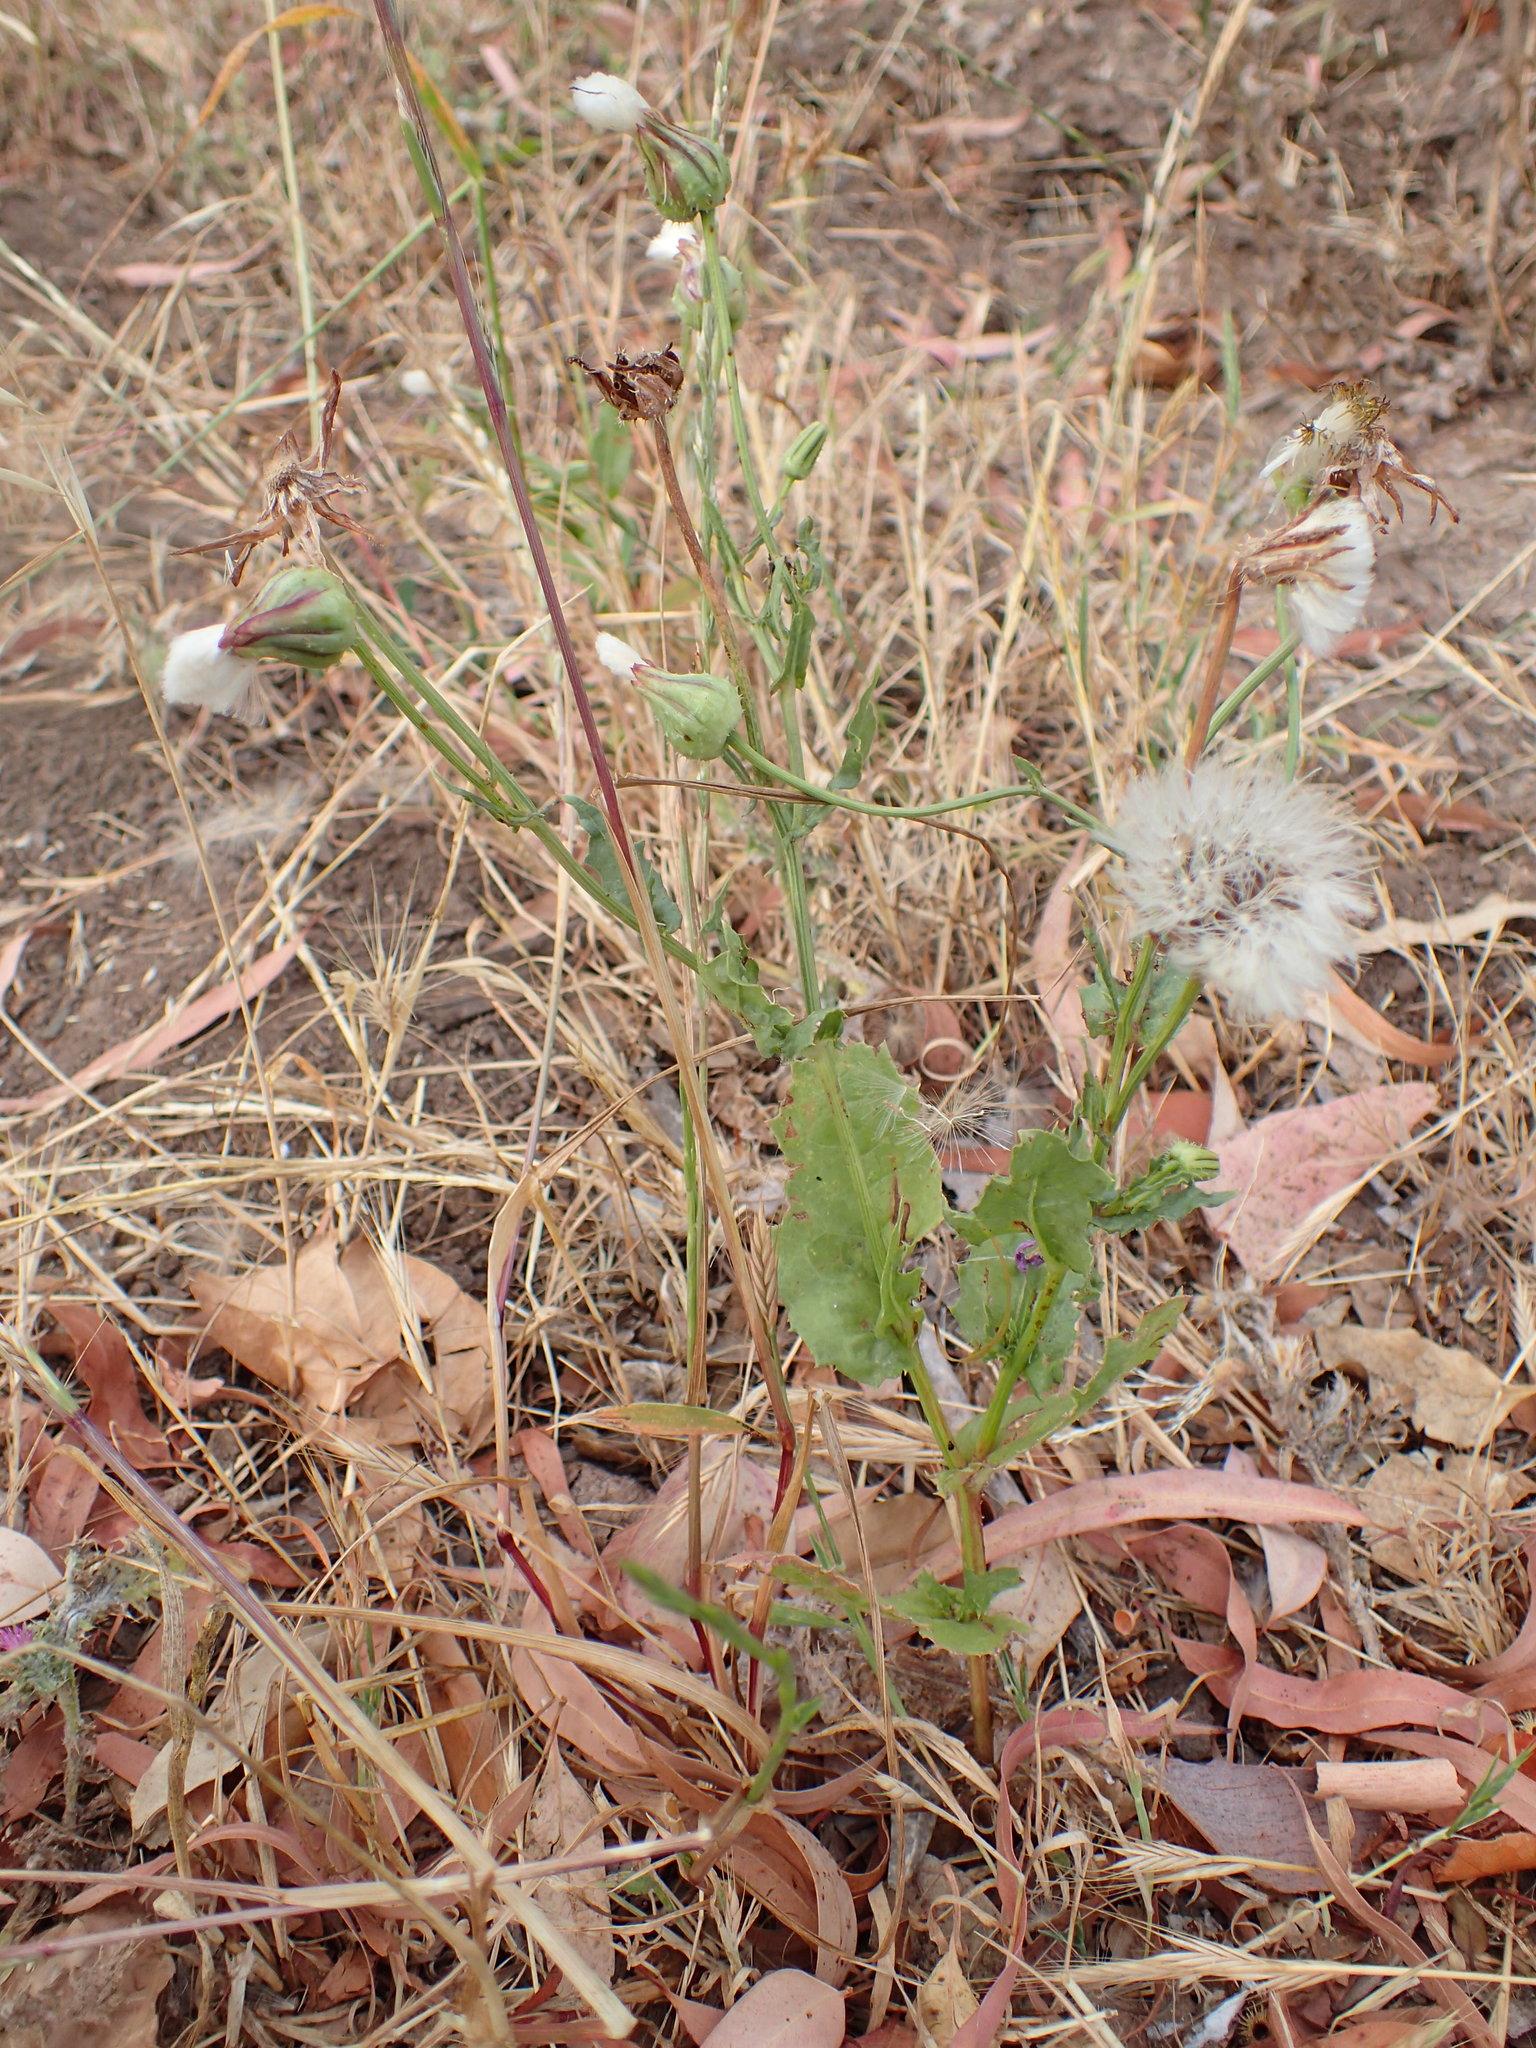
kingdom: Plantae
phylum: Tracheophyta
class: Magnoliopsida
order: Asterales
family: Asteraceae
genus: Urospermum
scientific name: Urospermum picroides
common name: False hawkbit
